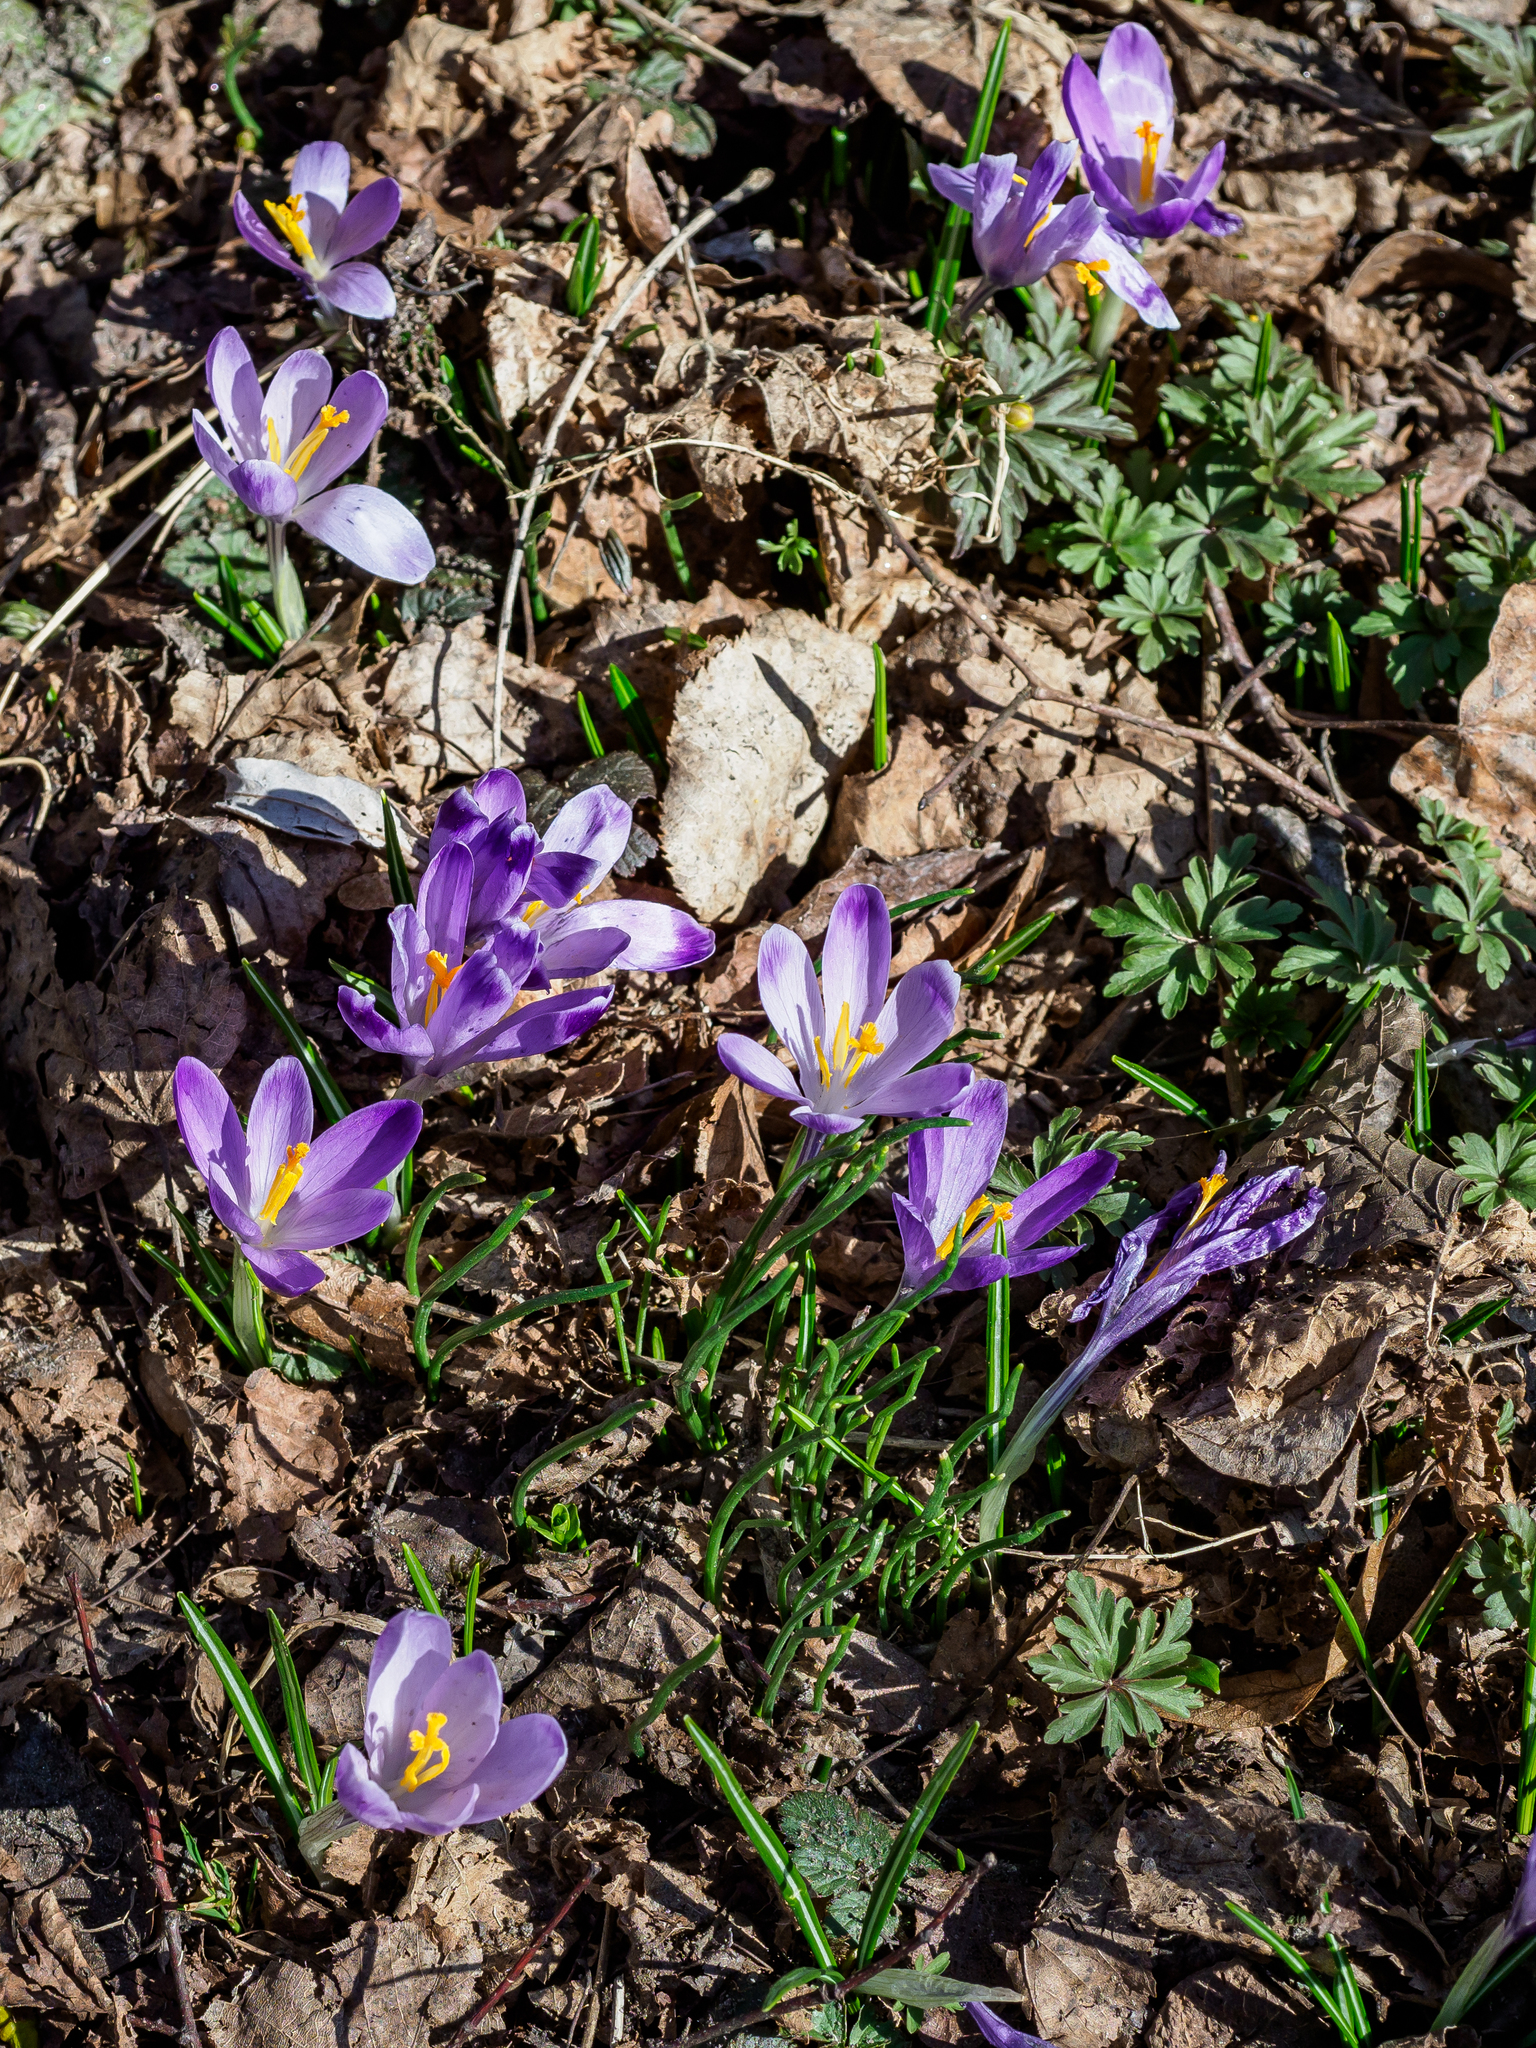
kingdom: Plantae
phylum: Tracheophyta
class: Liliopsida
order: Asparagales
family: Iridaceae
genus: Crocus
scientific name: Crocus heuffelianus
